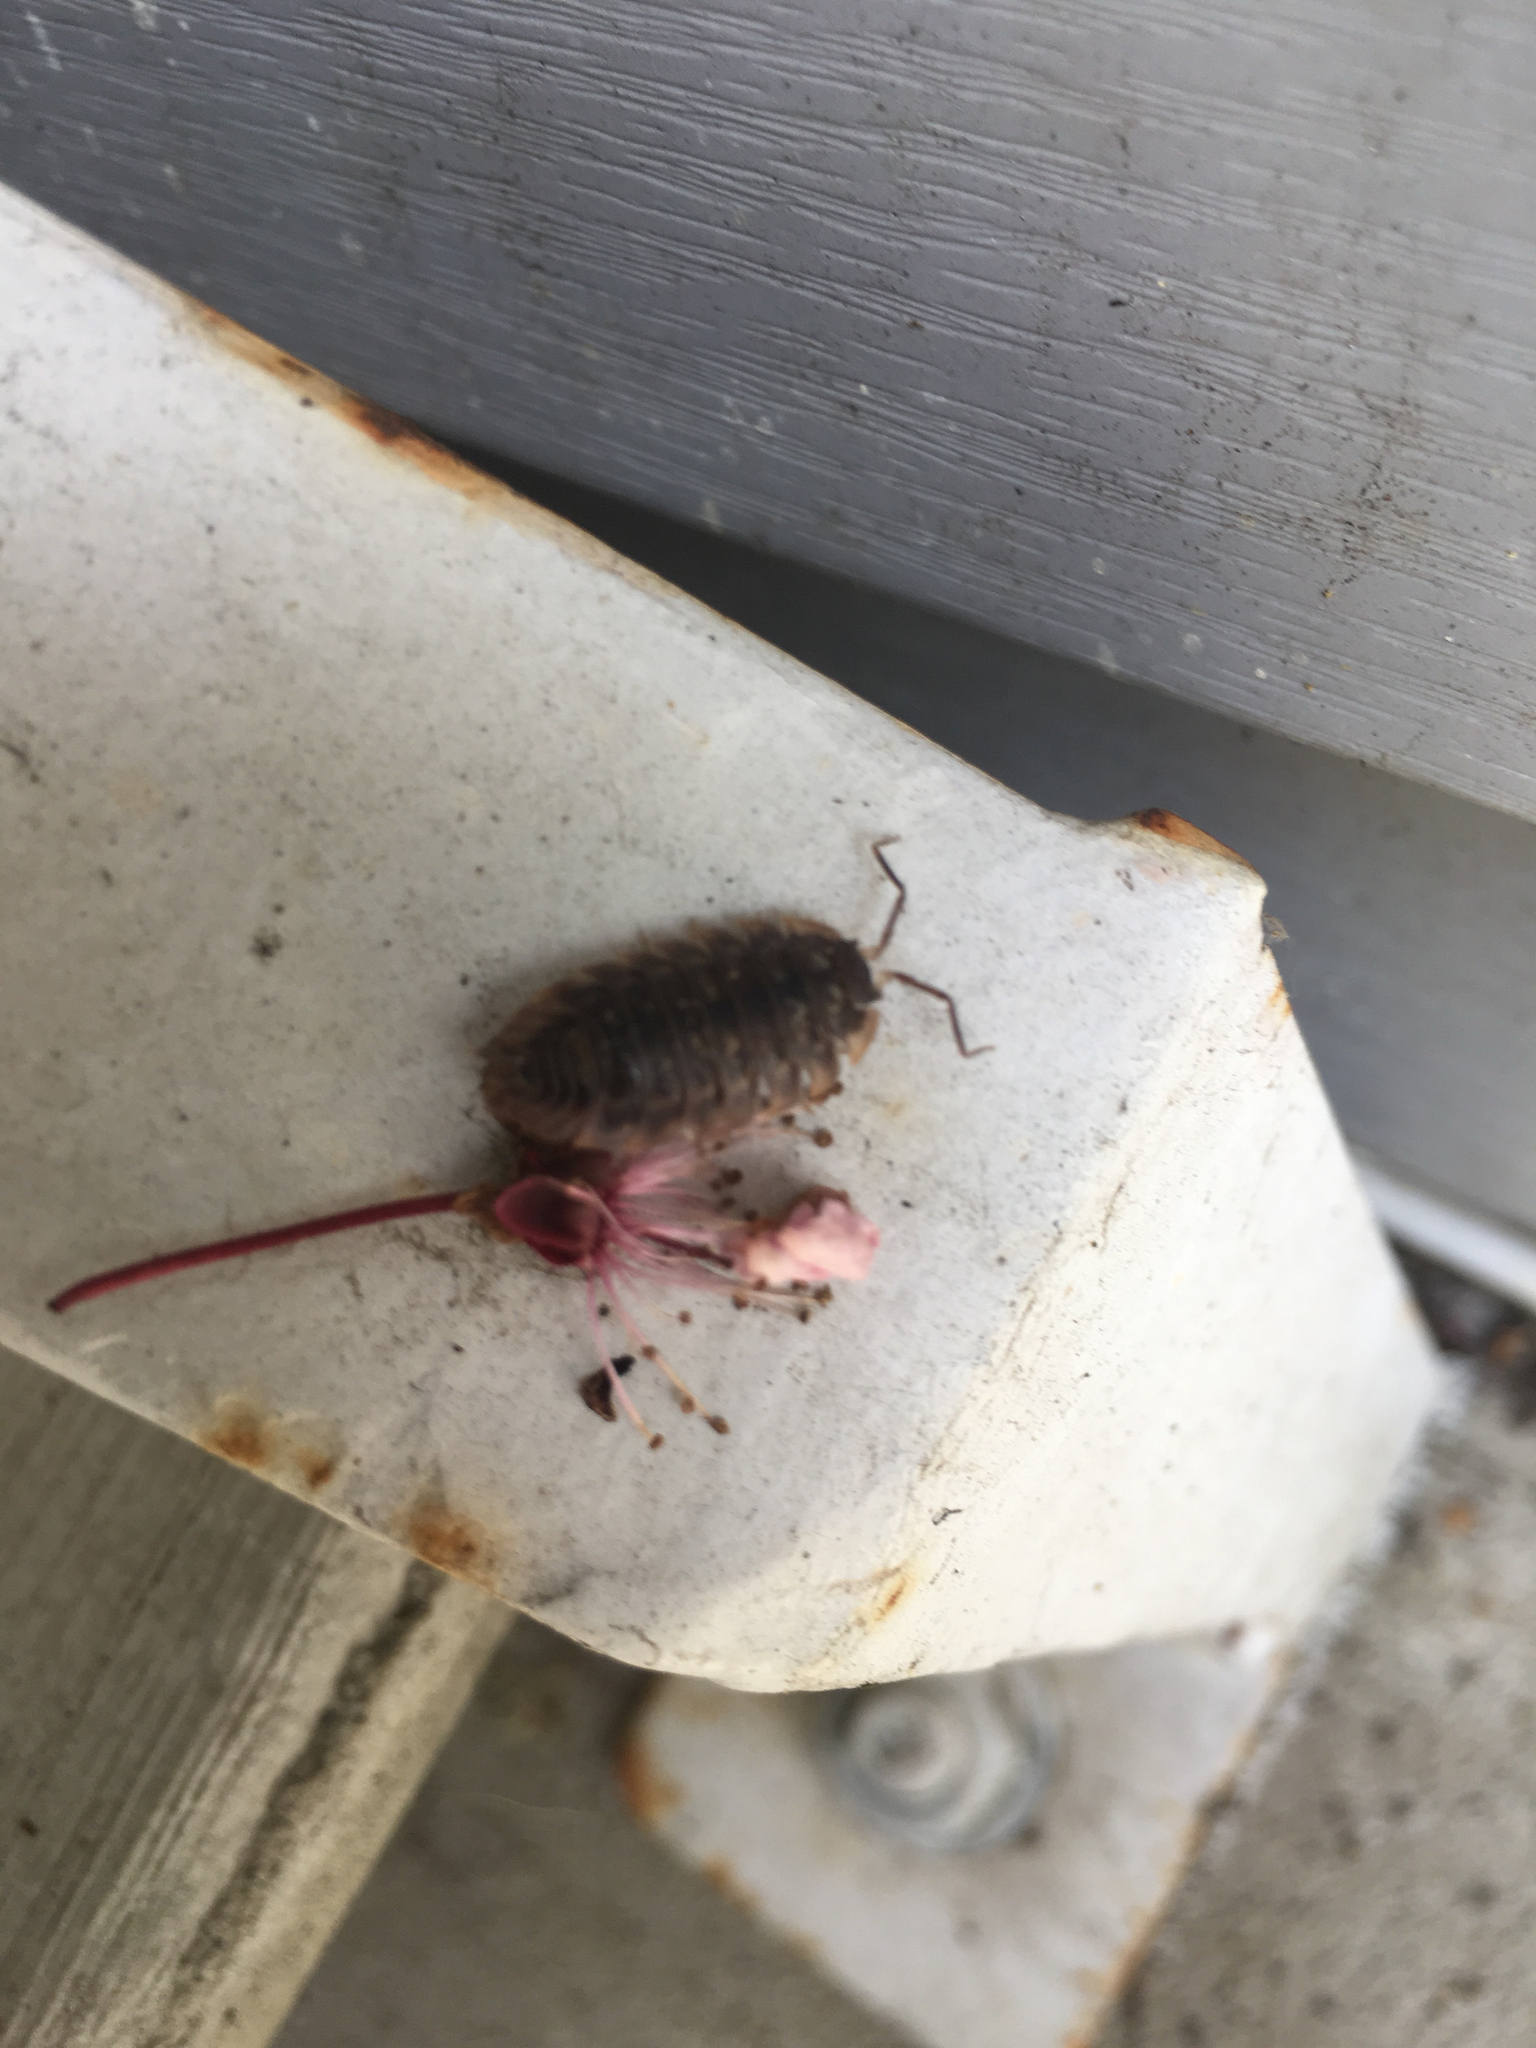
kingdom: Animalia
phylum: Arthropoda
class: Malacostraca
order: Isopoda
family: Oniscidae
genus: Oniscus
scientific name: Oniscus asellus
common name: Common shiny woodlouse
